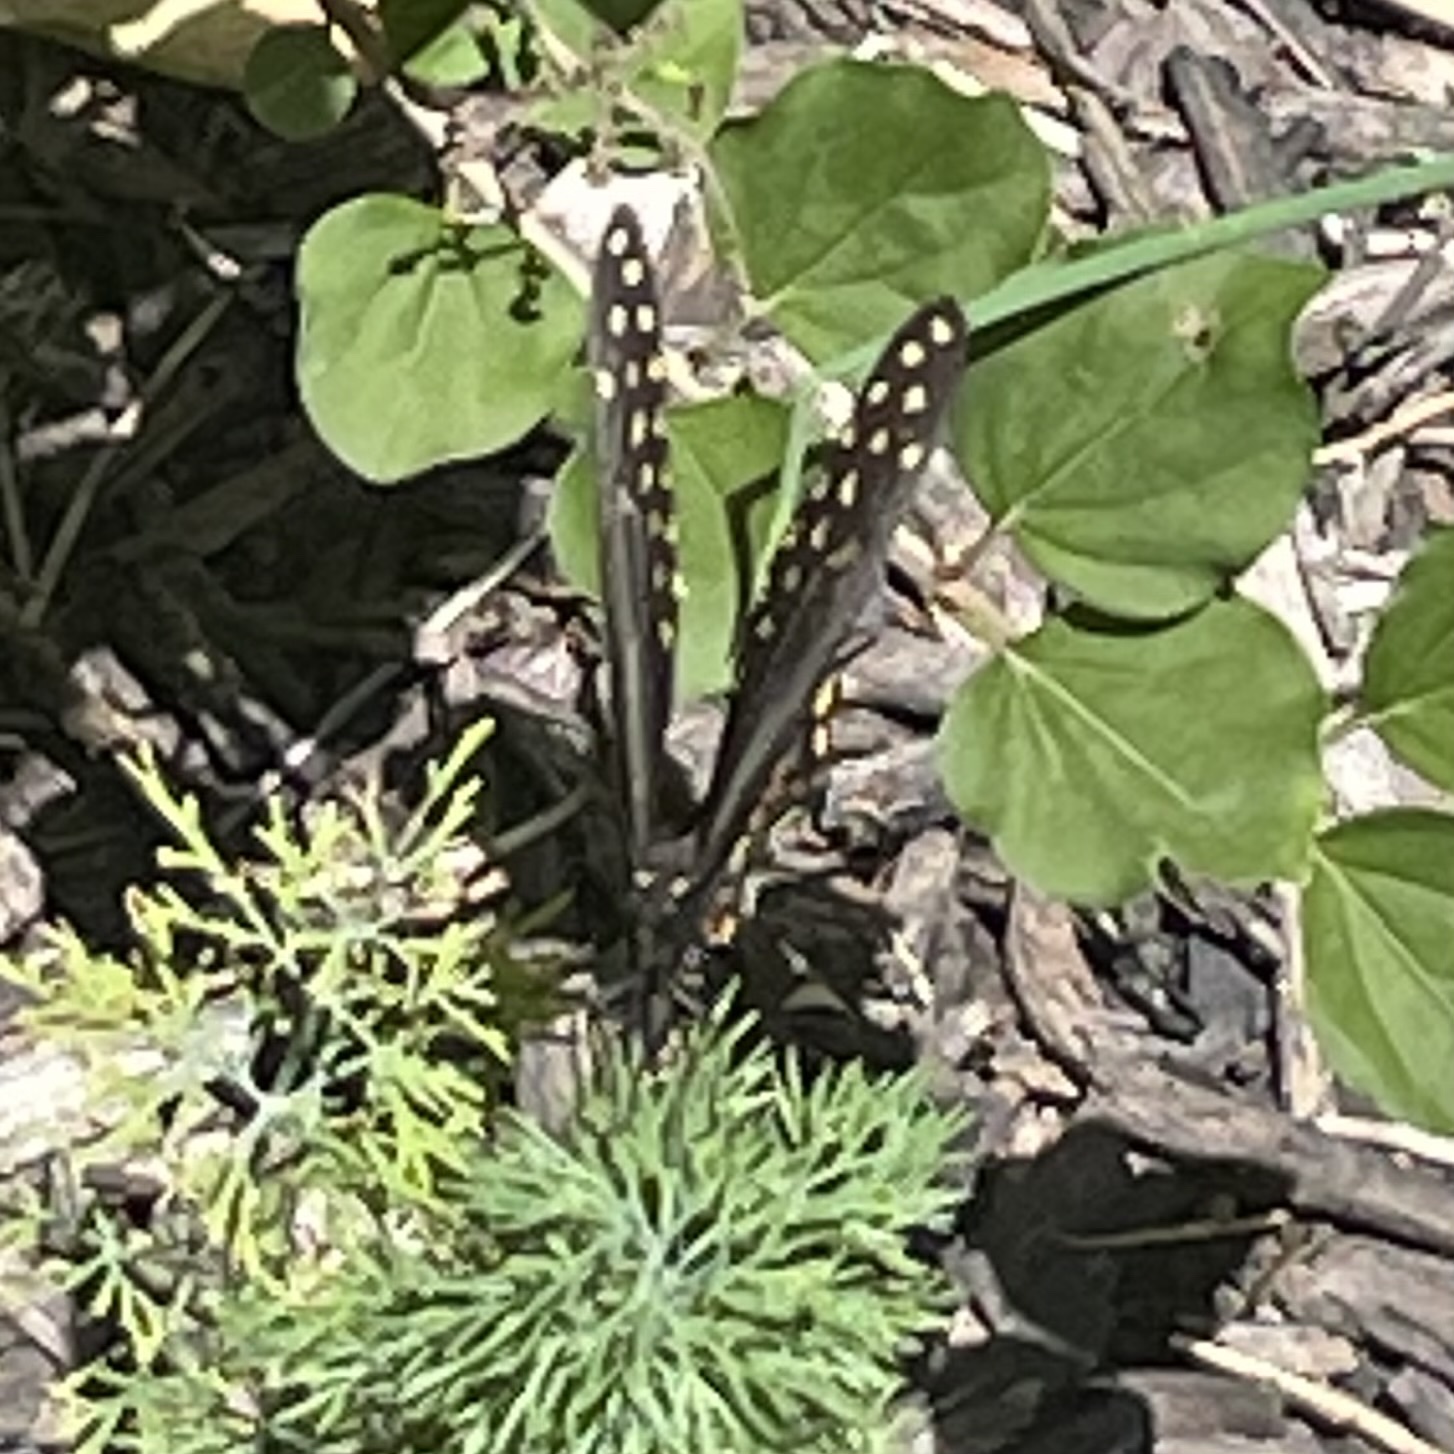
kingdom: Animalia
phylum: Arthropoda
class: Insecta
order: Lepidoptera
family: Papilionidae
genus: Papilio
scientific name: Papilio polyxenes
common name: Black swallowtail
